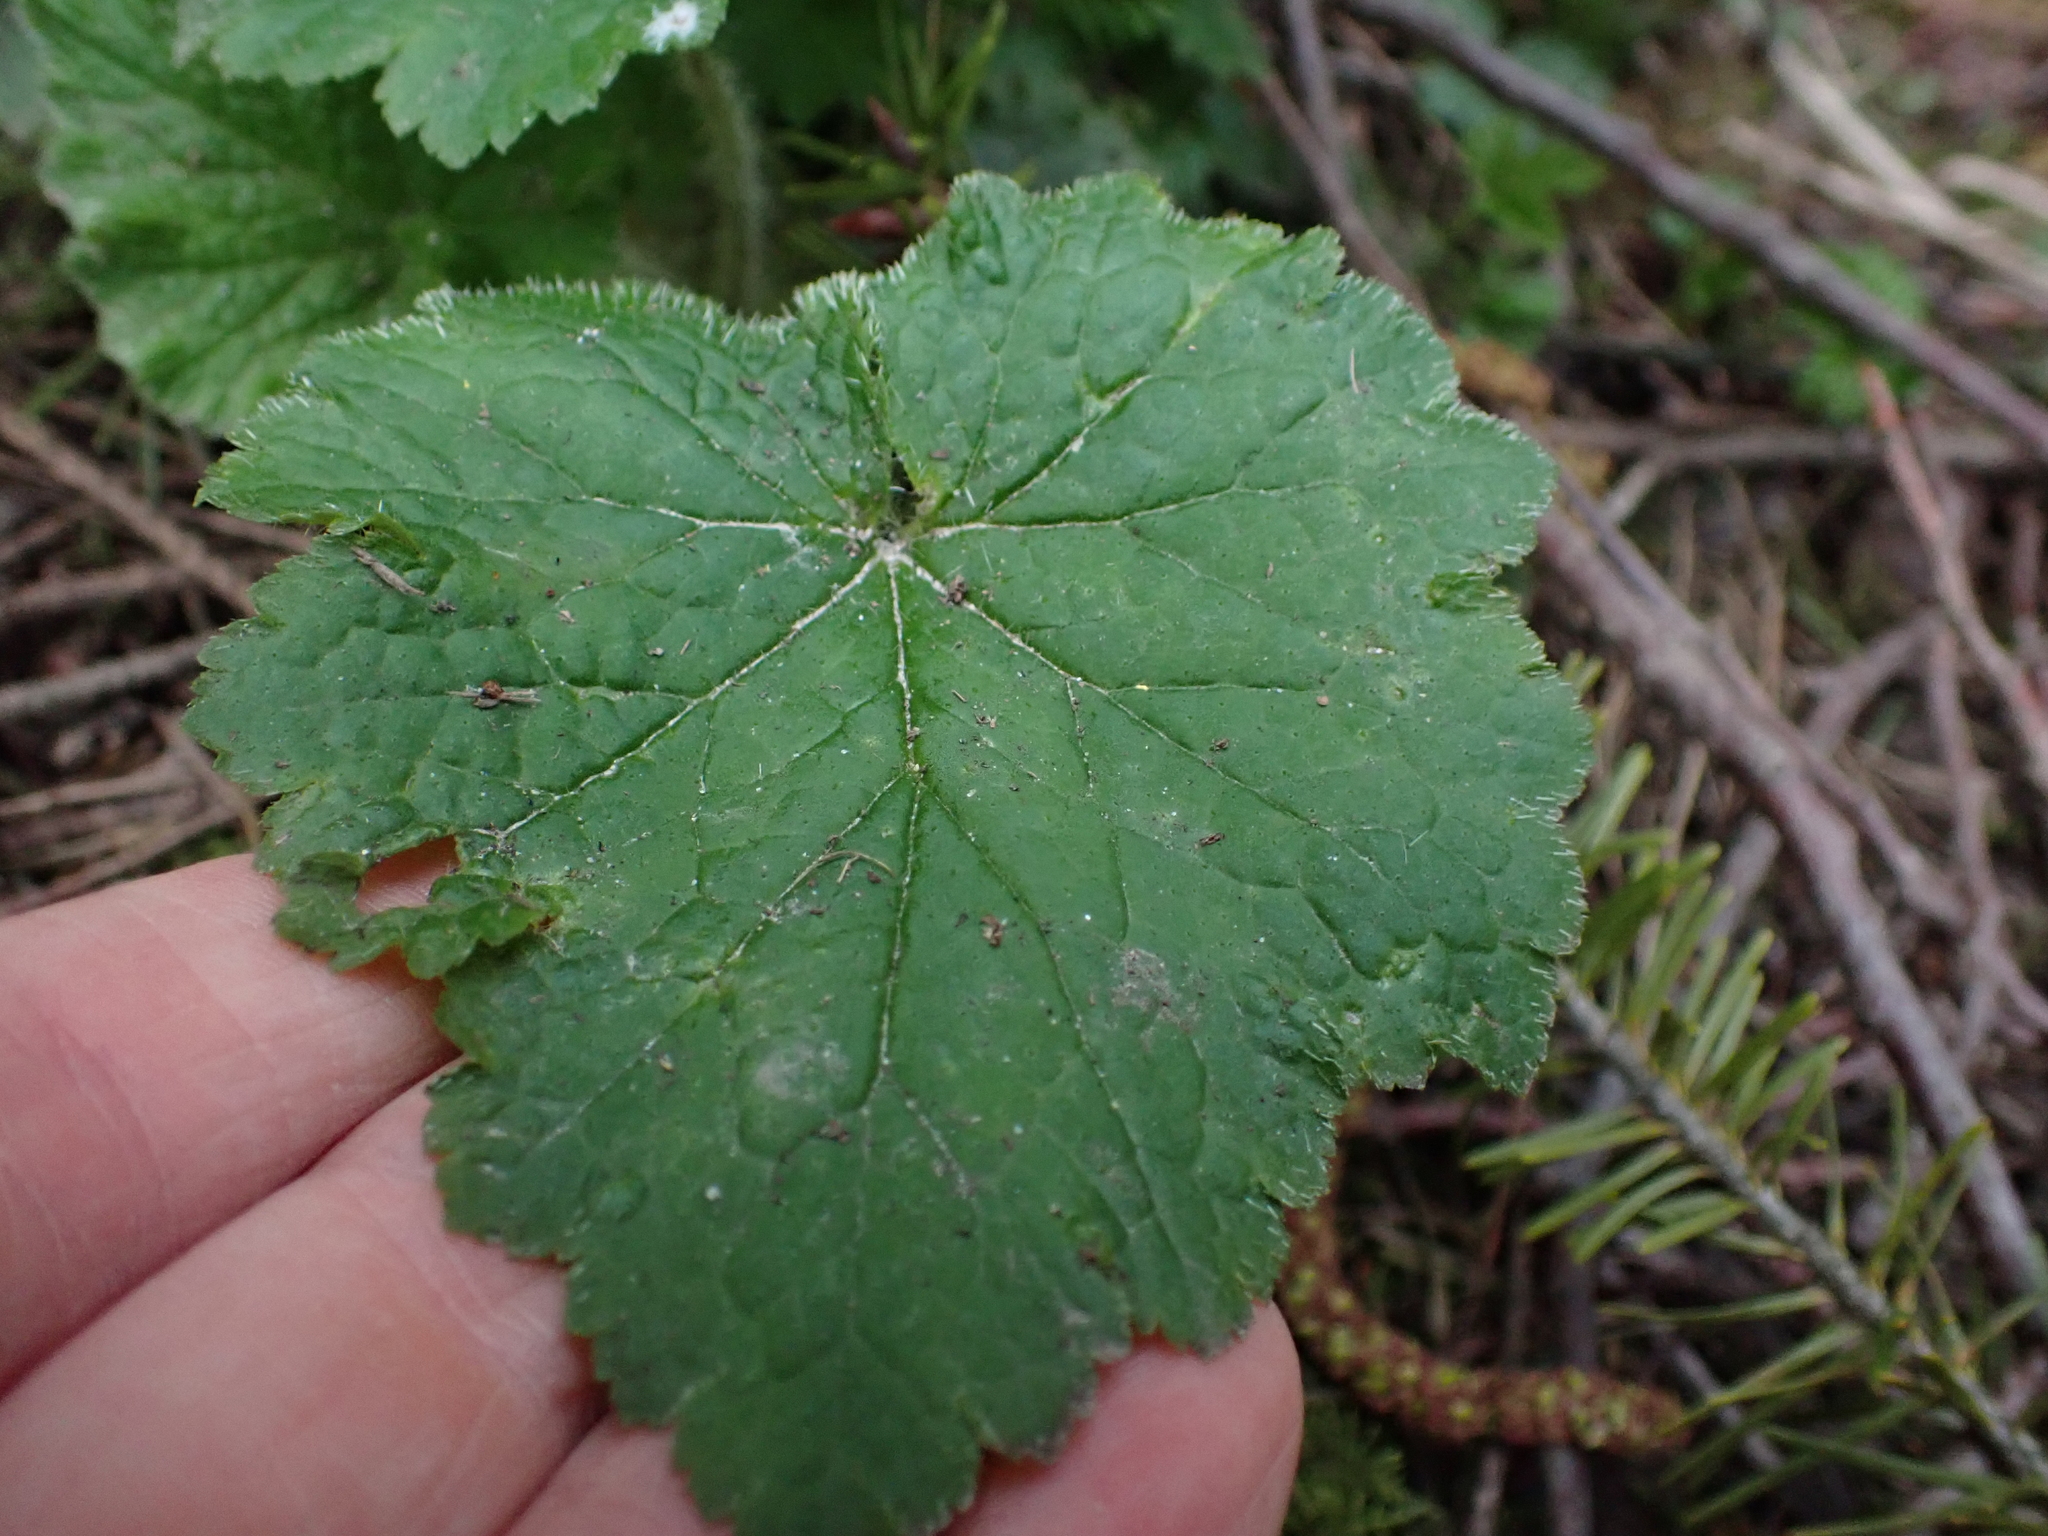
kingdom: Plantae
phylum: Tracheophyta
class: Magnoliopsida
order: Saxifragales
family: Saxifragaceae
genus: Tellima
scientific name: Tellima grandiflora
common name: Fringecups
